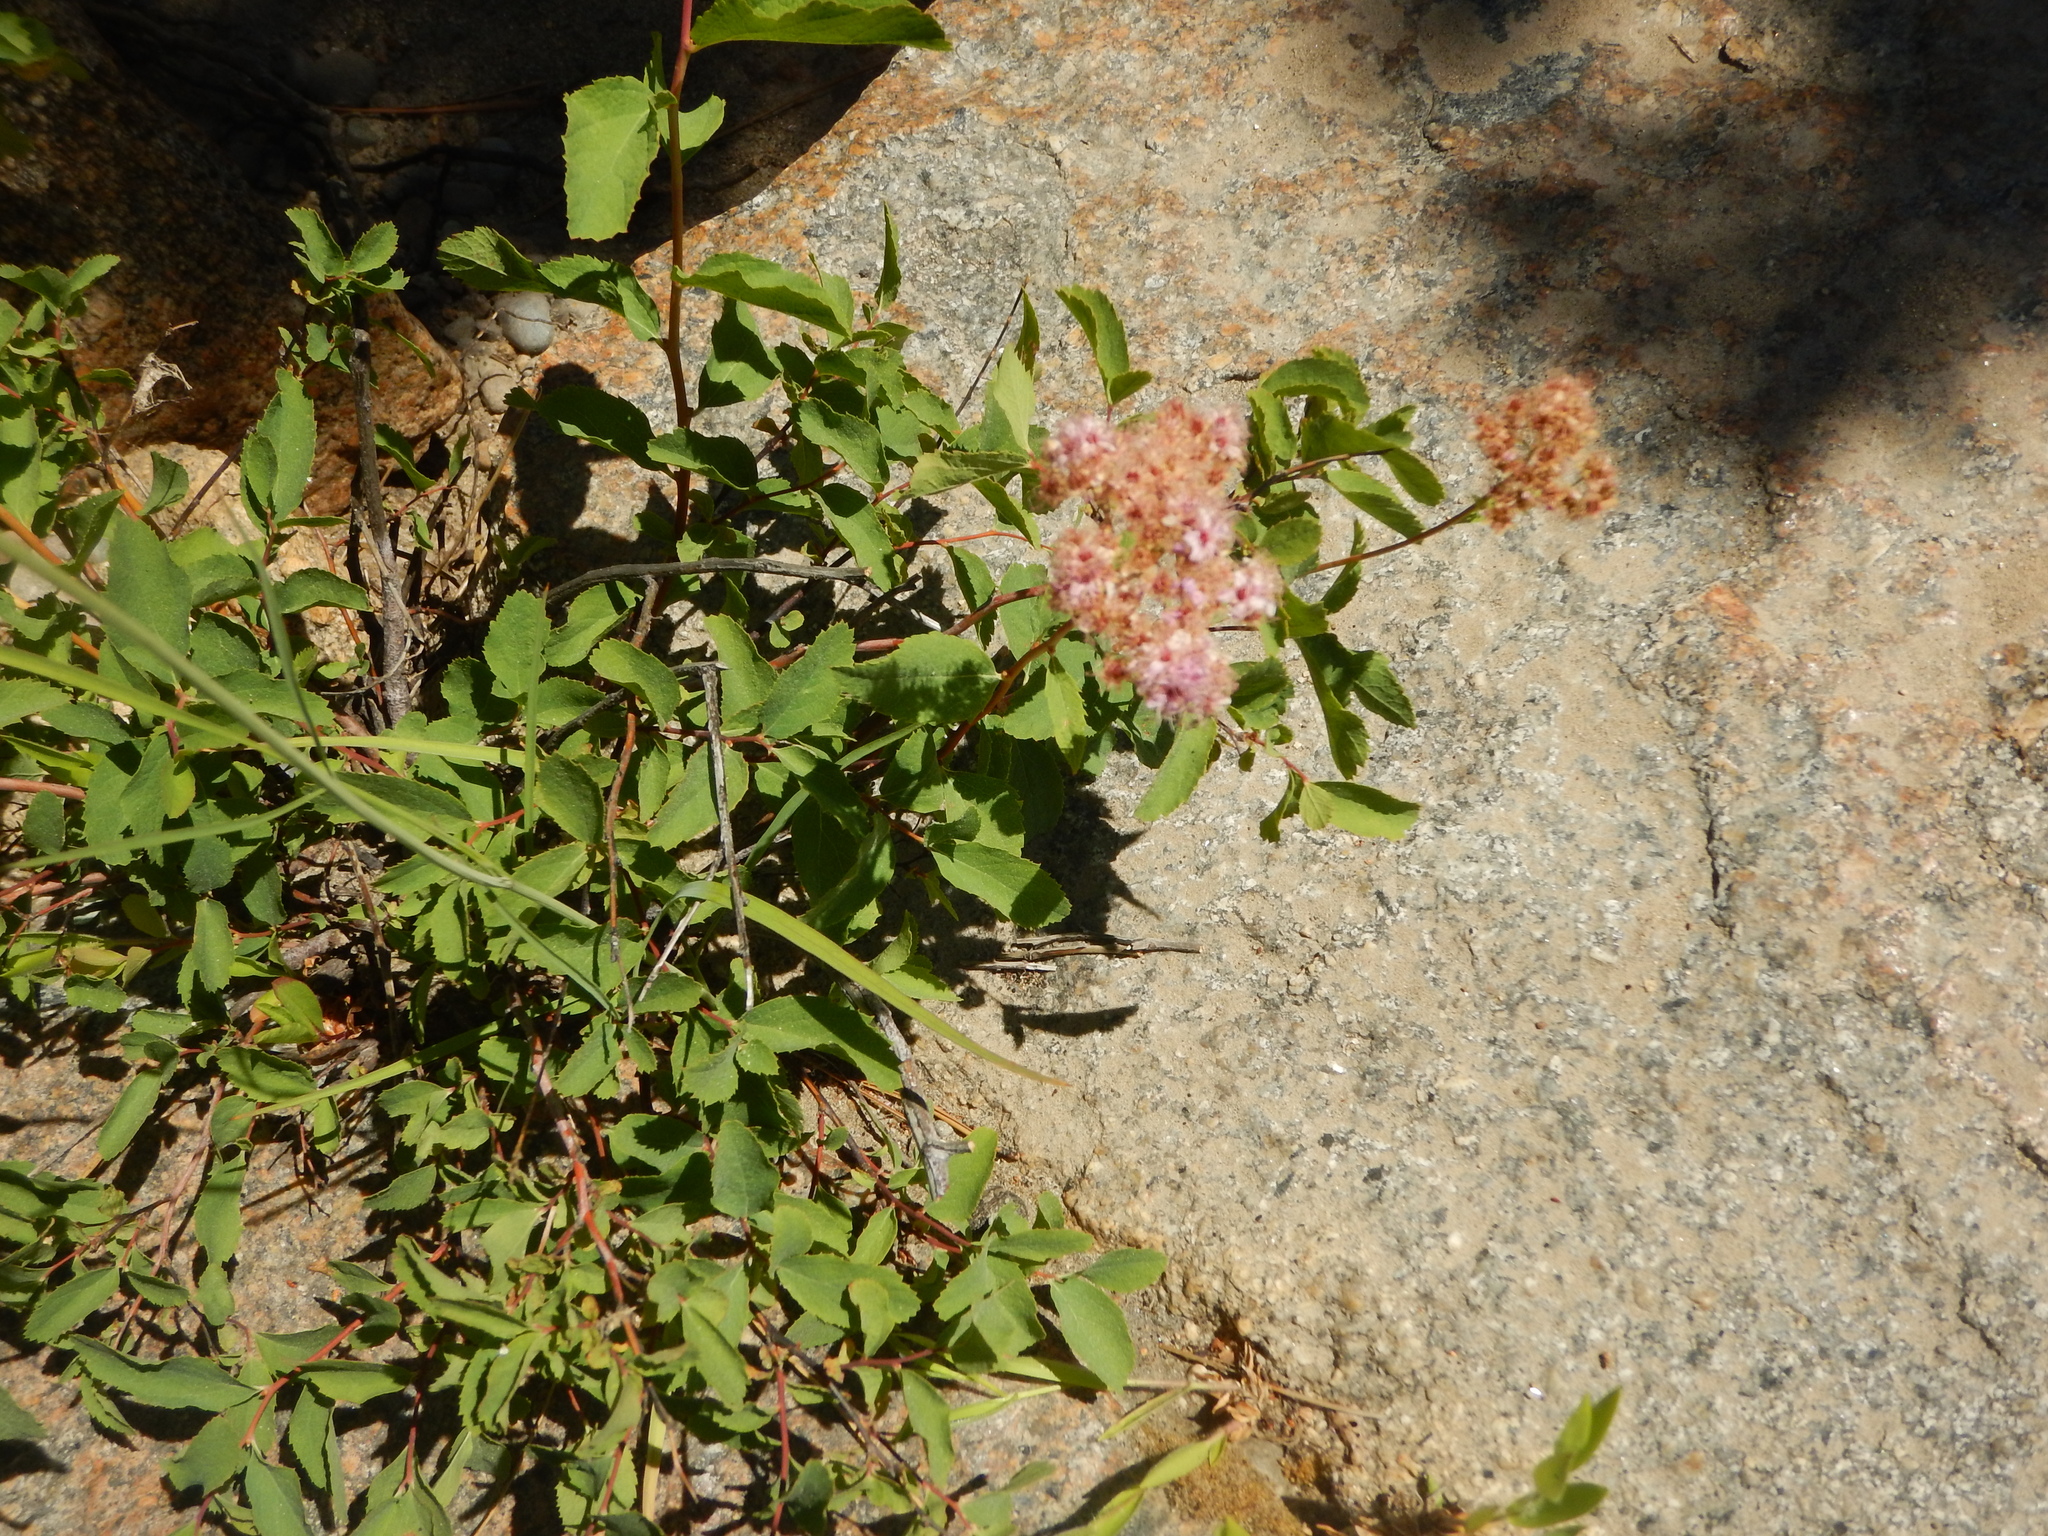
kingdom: Plantae
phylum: Tracheophyta
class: Magnoliopsida
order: Rosales
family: Rosaceae
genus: Spiraea
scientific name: Spiraea splendens
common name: Subalpine meadowsweet
